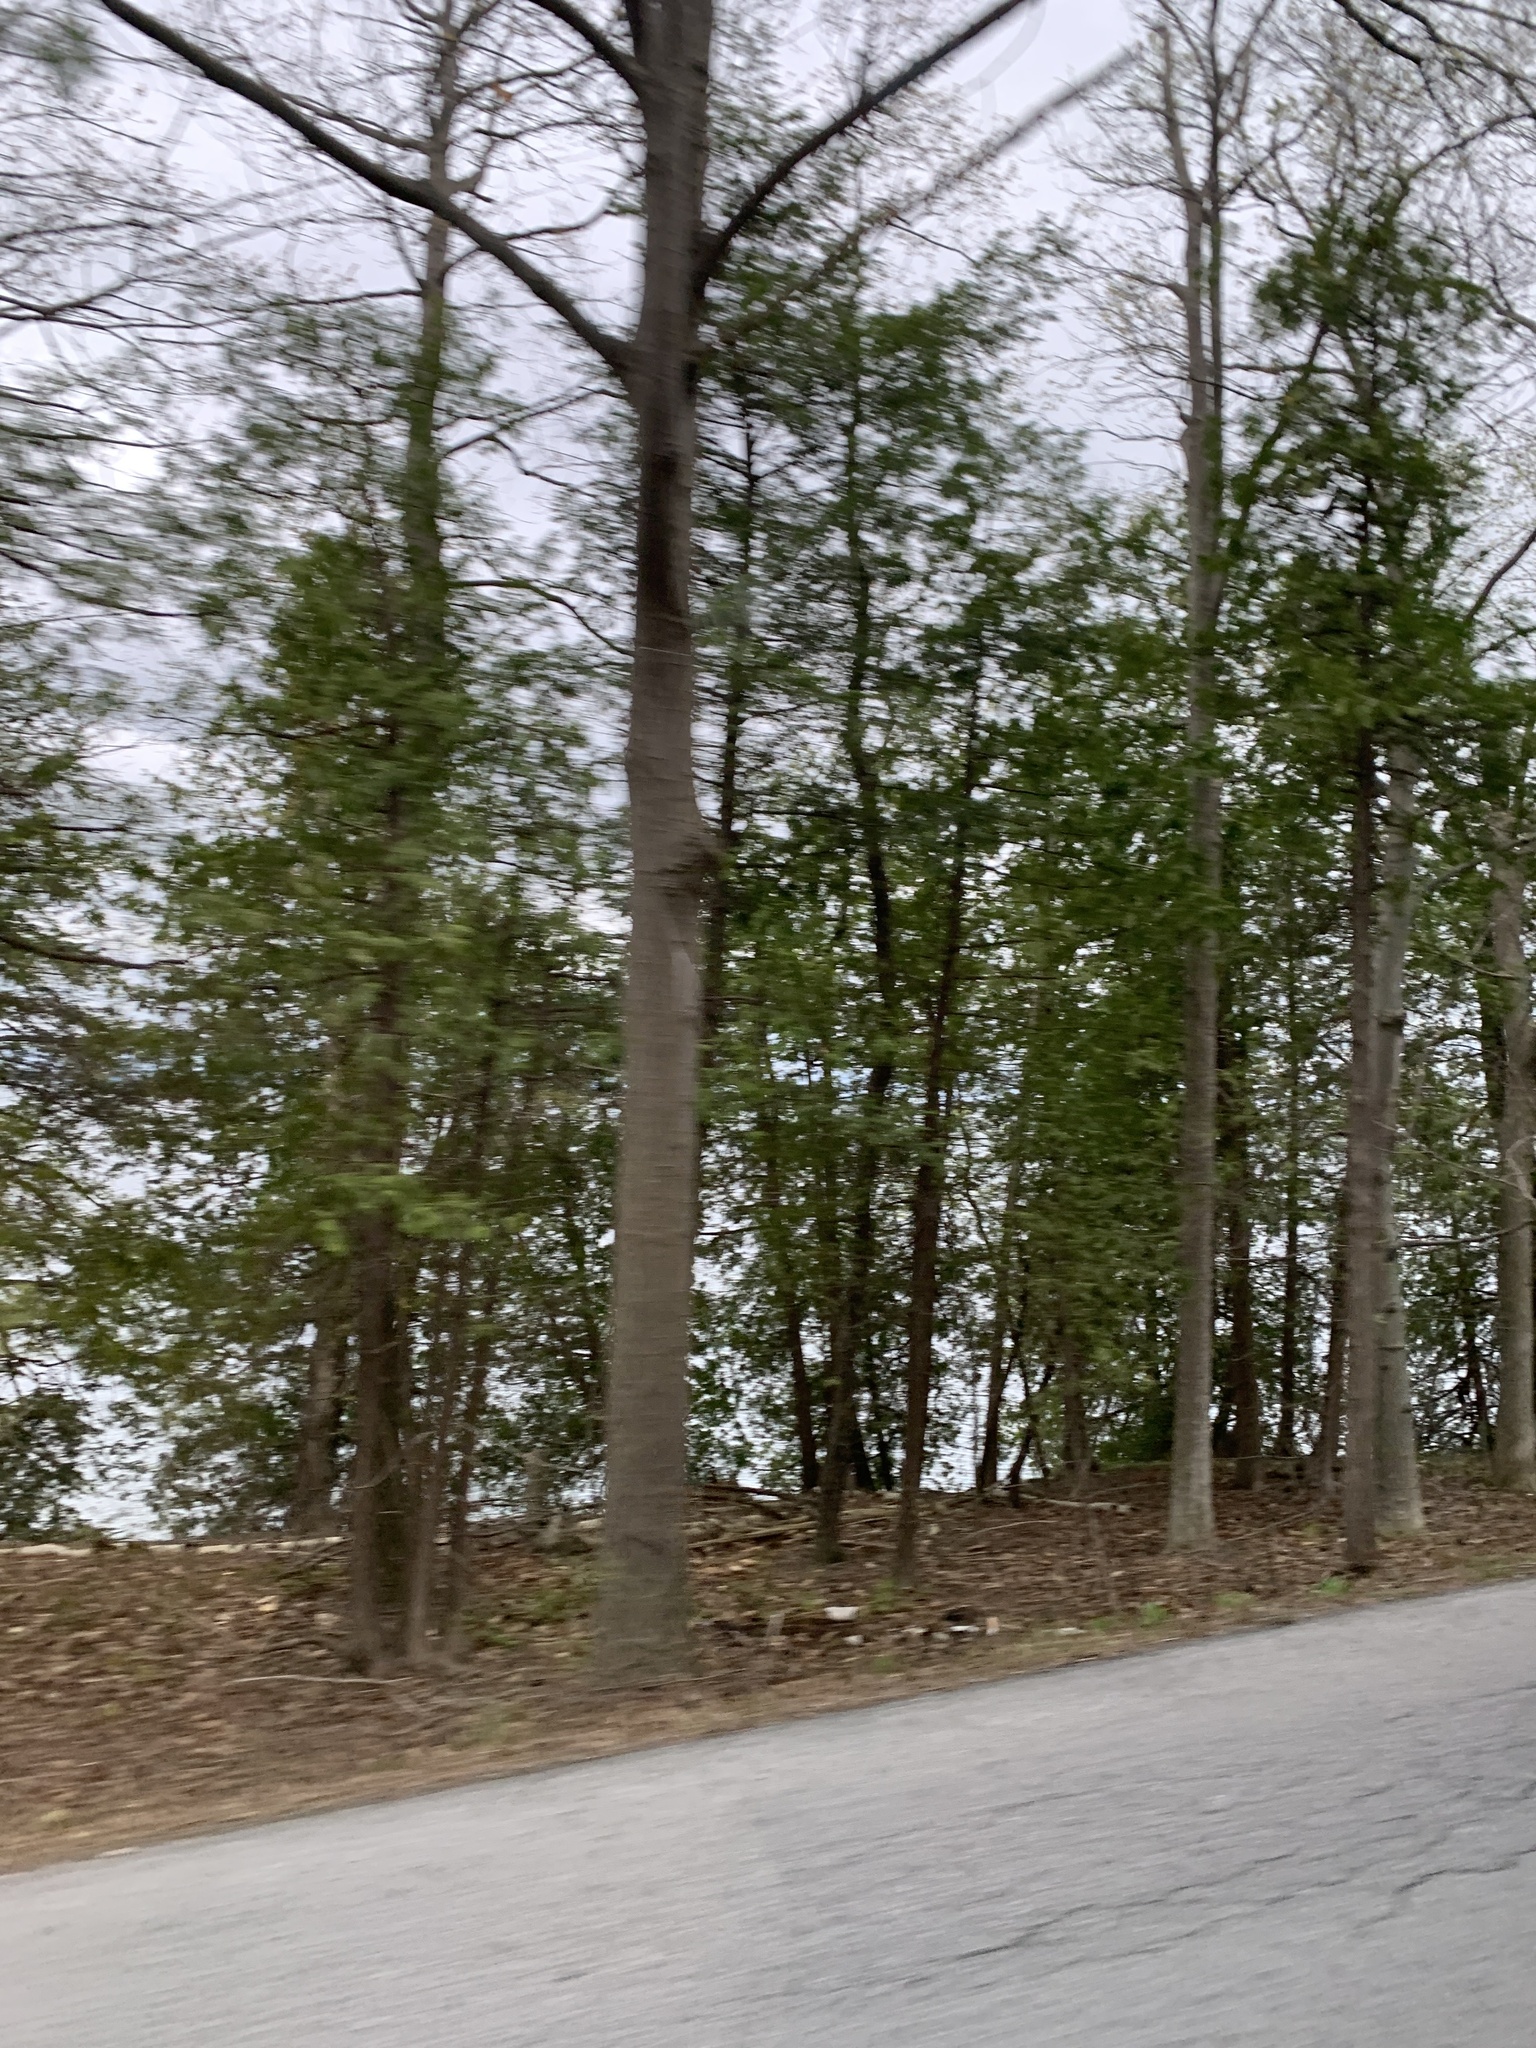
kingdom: Plantae
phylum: Tracheophyta
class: Pinopsida
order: Pinales
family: Cupressaceae
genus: Thuja
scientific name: Thuja occidentalis
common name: Northern white-cedar
